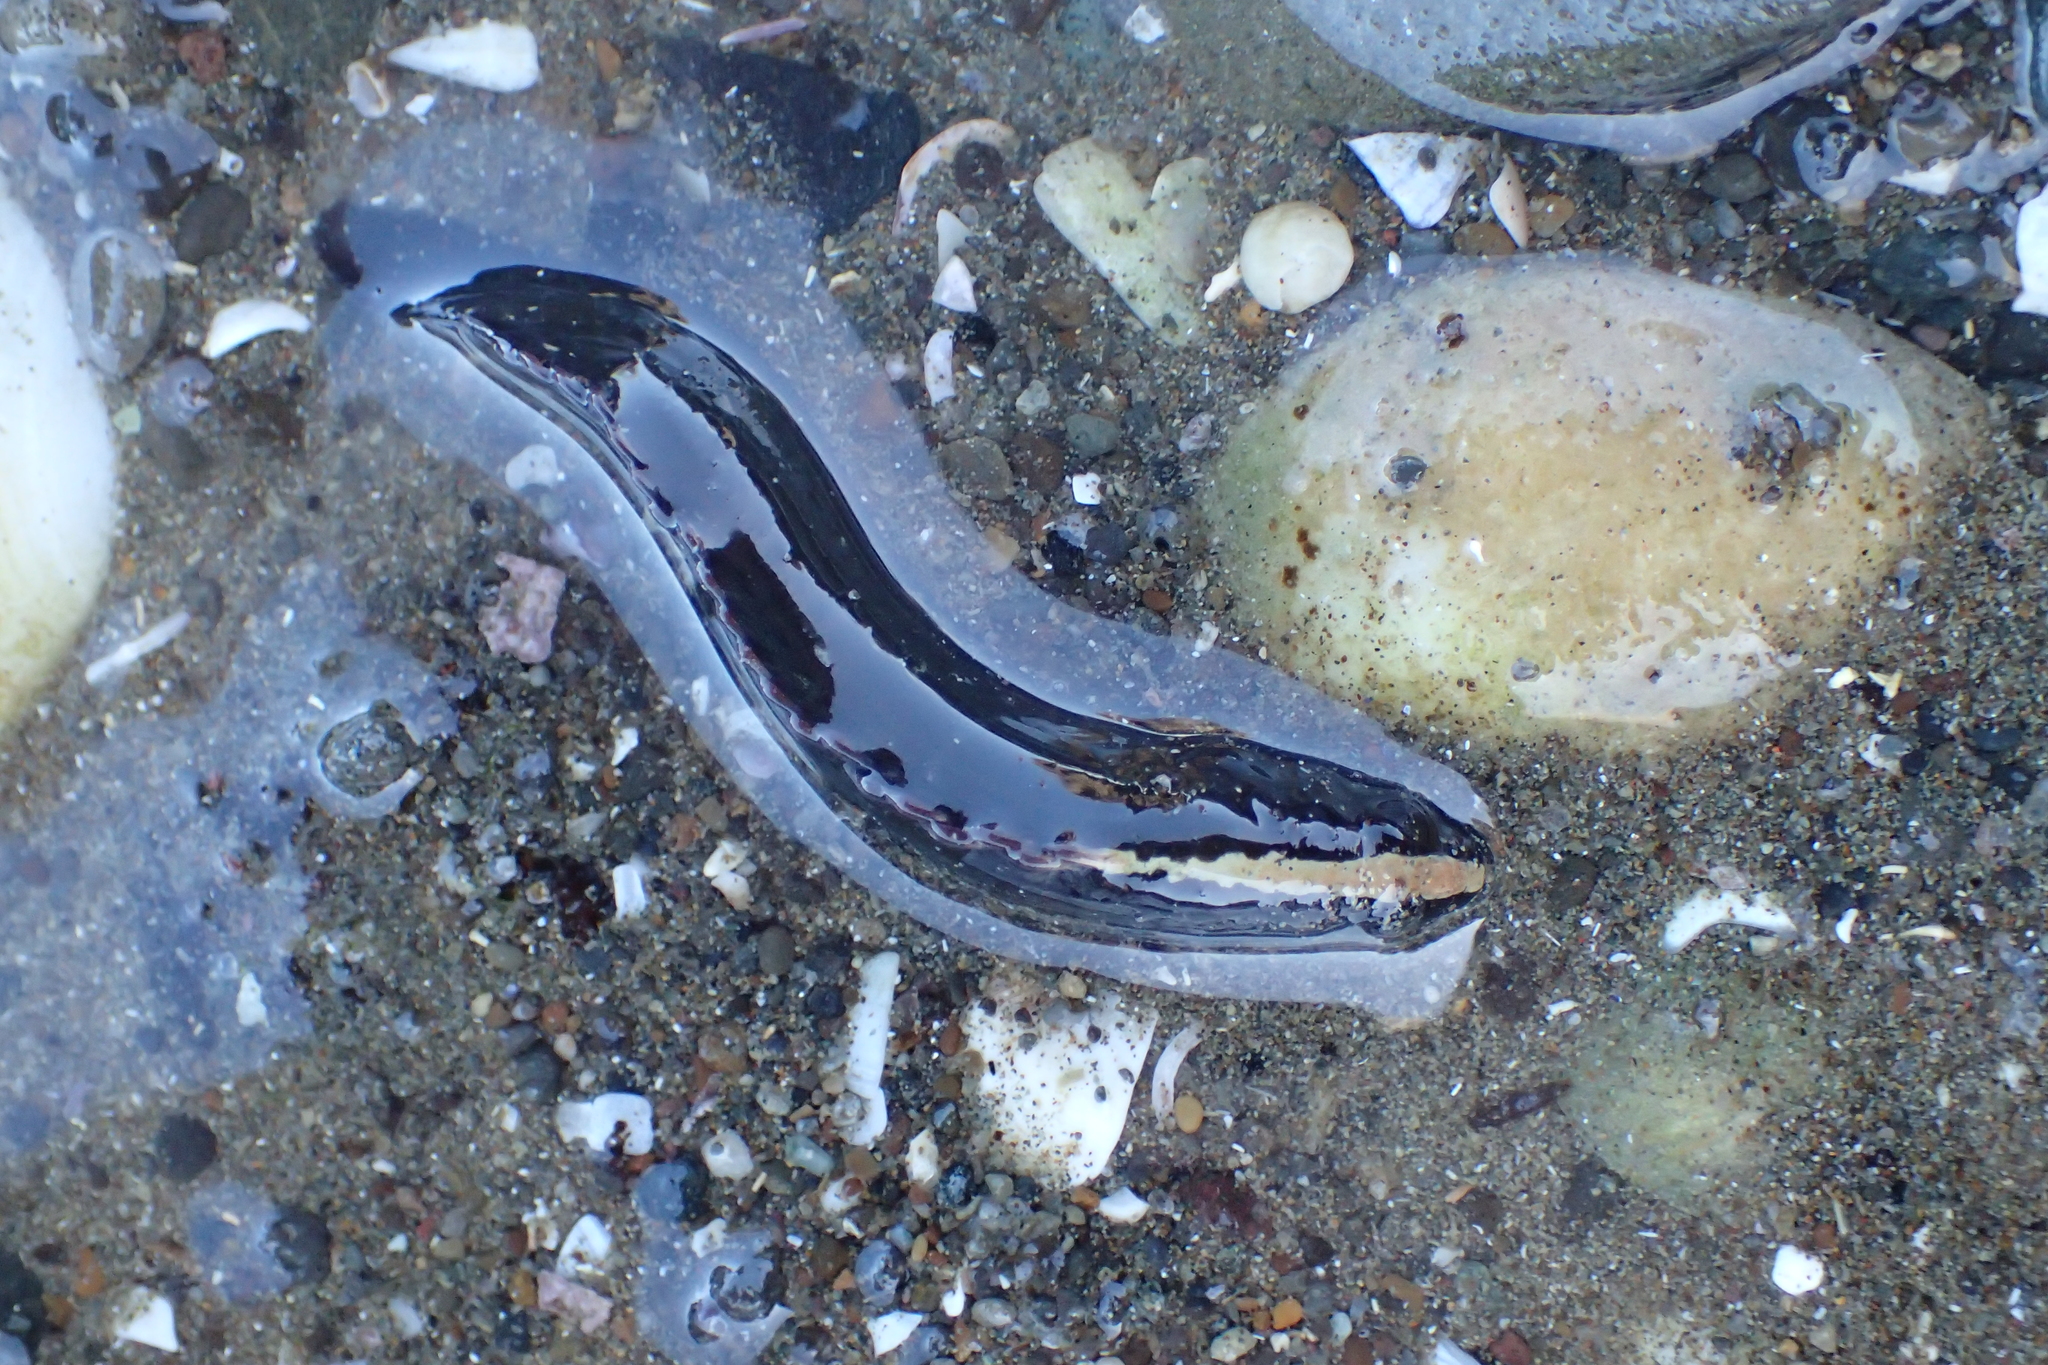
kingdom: Animalia
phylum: Chordata
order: Perciformes
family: Plesiopidae
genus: Acanthoclinus
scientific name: Acanthoclinus fuscus
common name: Olive rockfish
